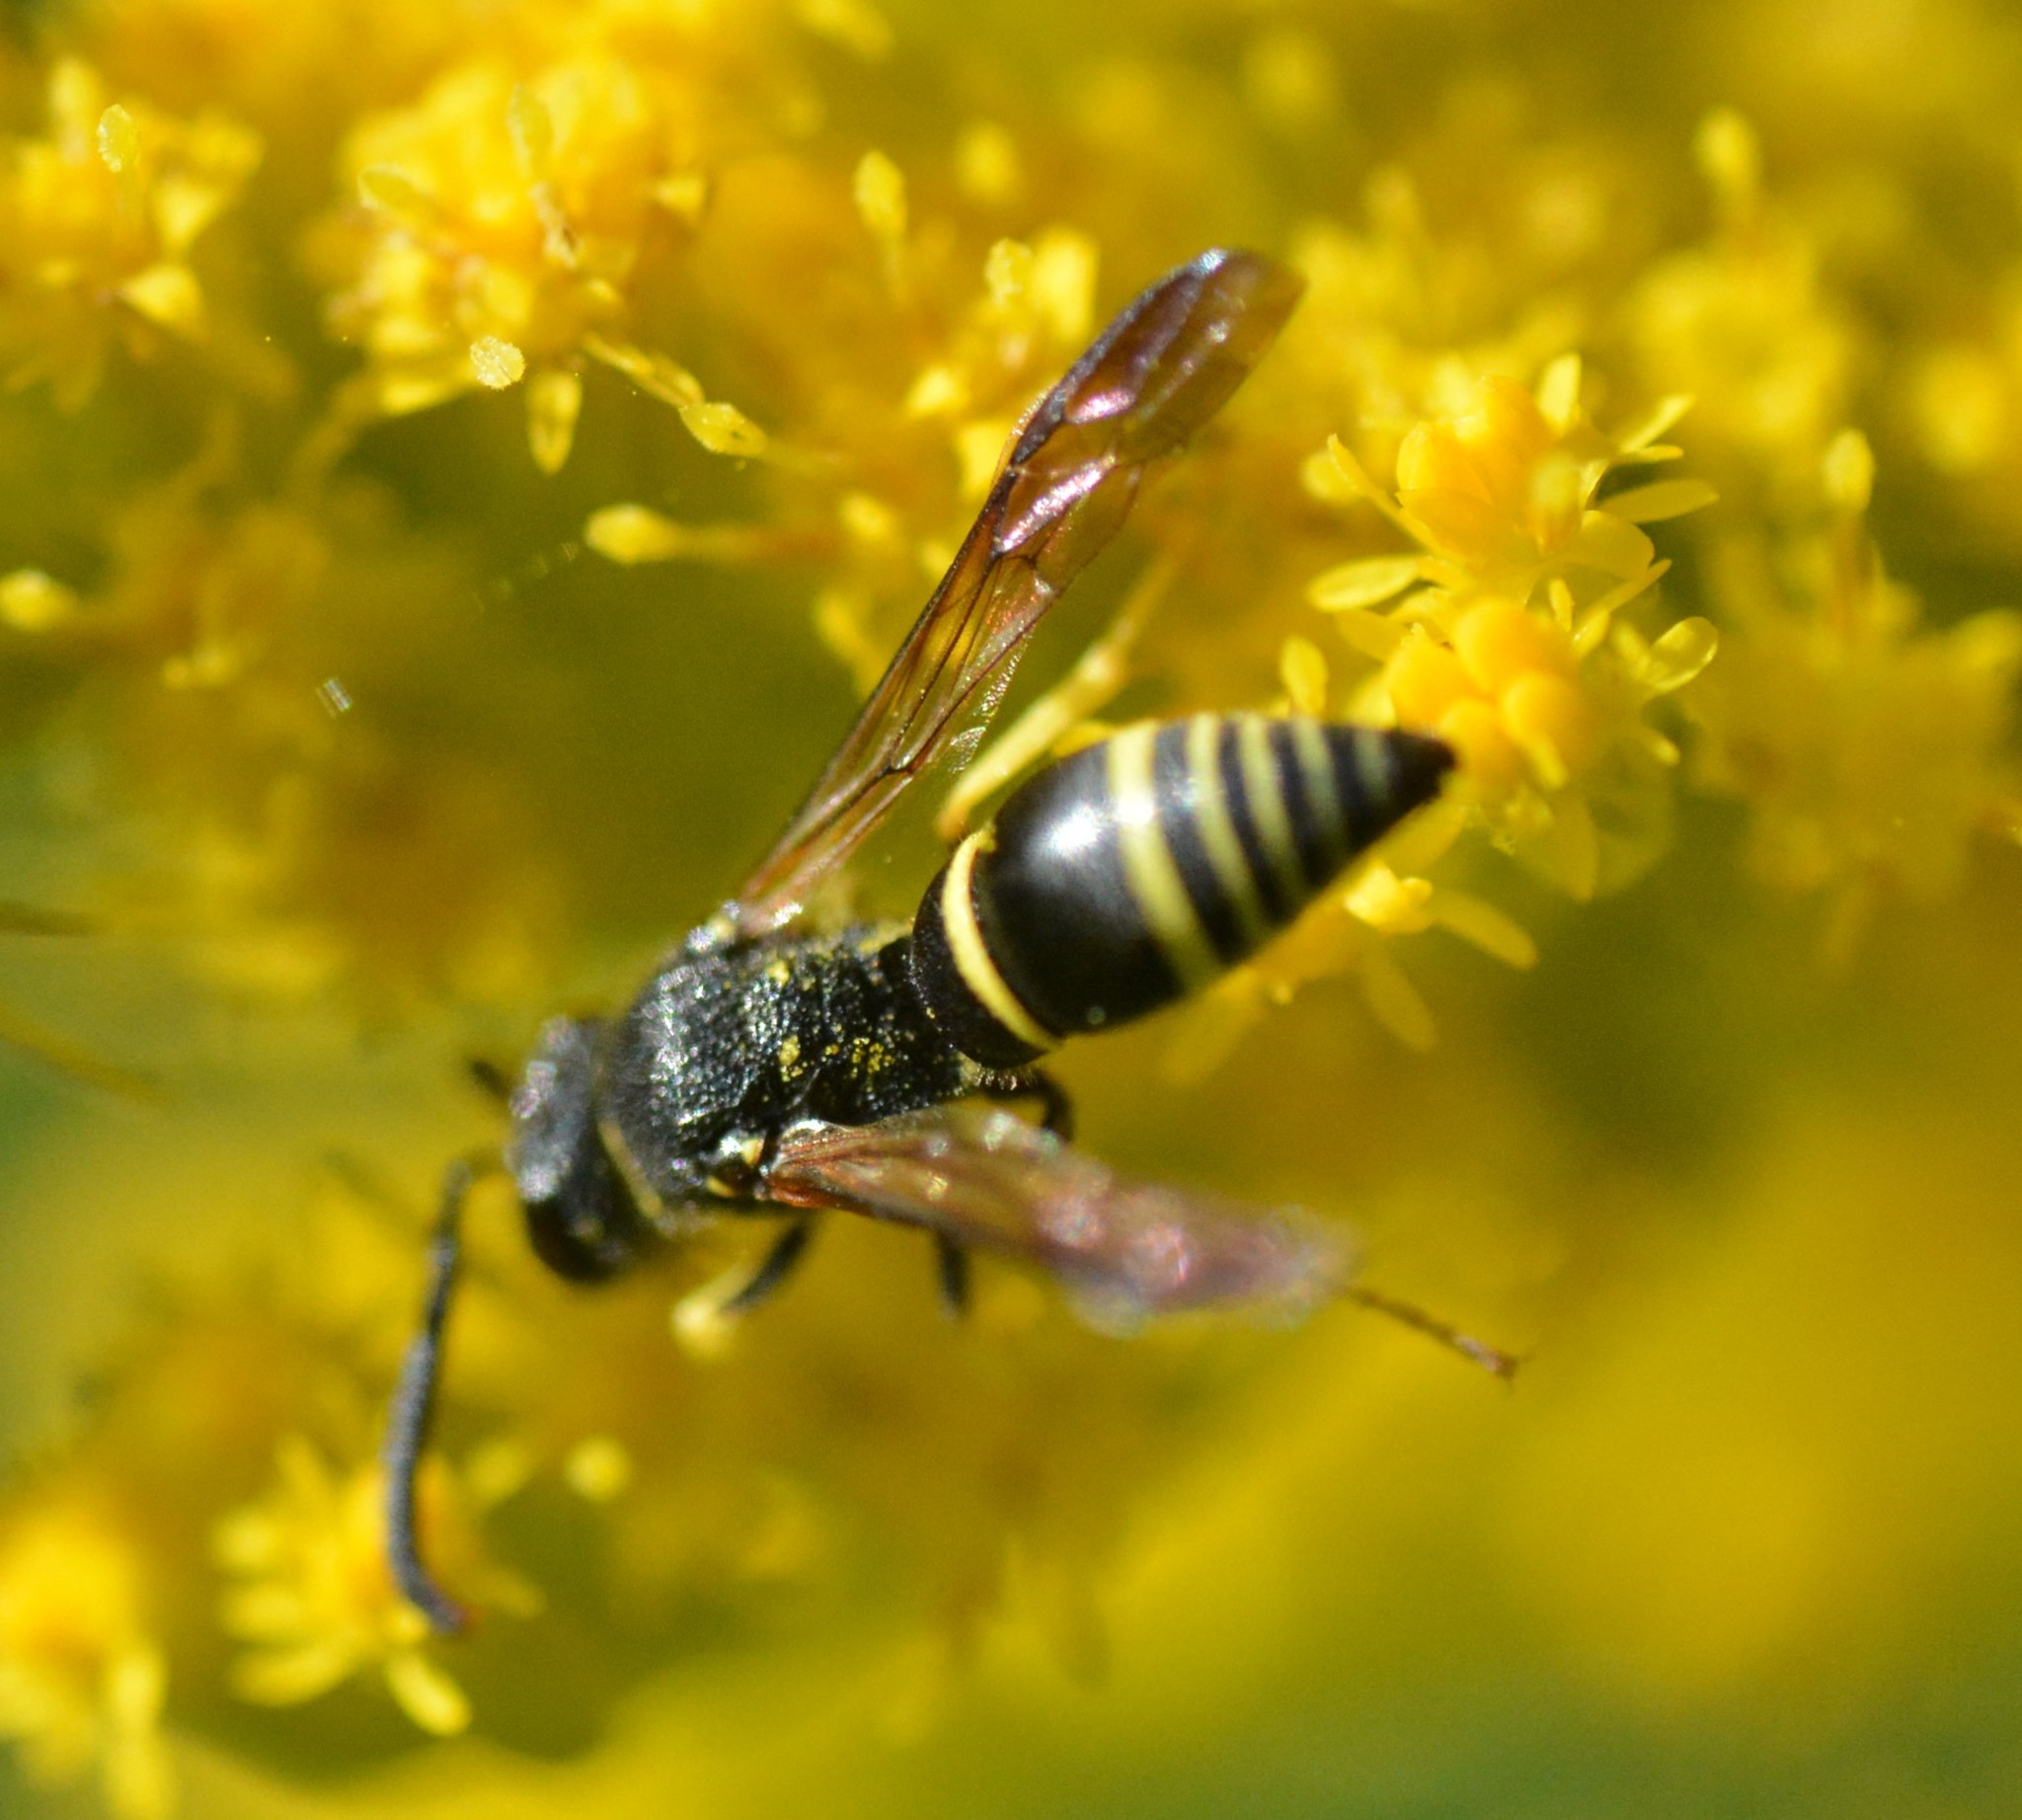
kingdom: Animalia
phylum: Arthropoda
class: Insecta
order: Hymenoptera
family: Vespidae
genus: Ancistrocerus
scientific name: Ancistrocerus adiabatus
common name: Bramble mason wasp
